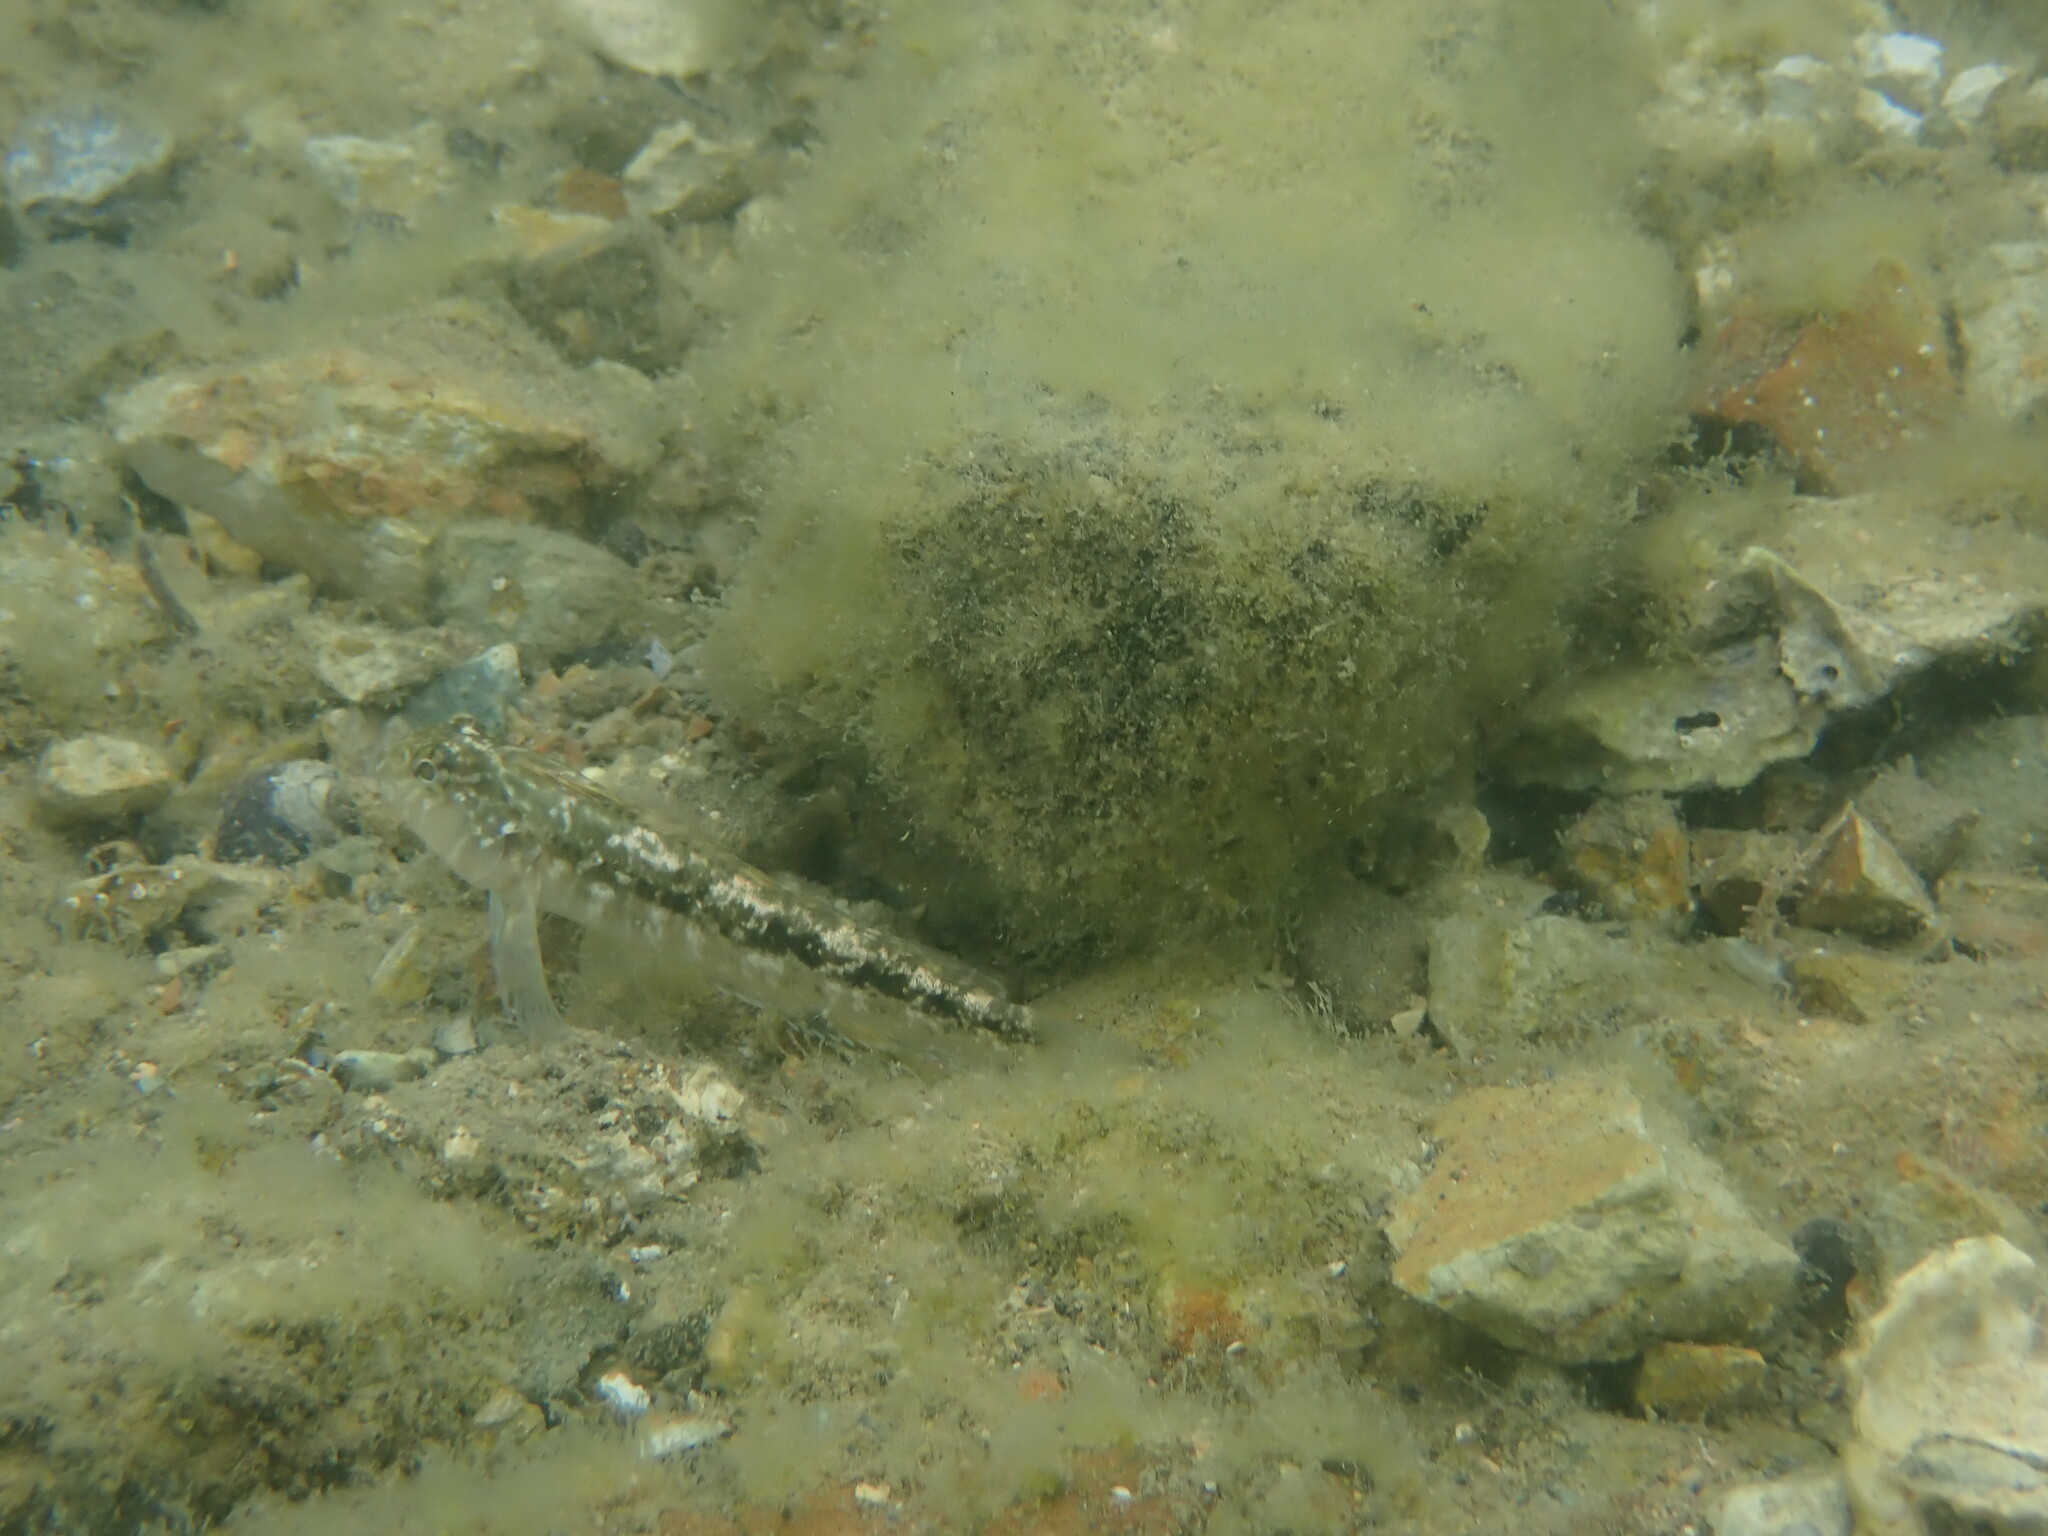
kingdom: Animalia
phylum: Chordata
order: Perciformes
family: Tripterygiidae
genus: Forsterygion
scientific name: Forsterygion nigripenne
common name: Cockabully
